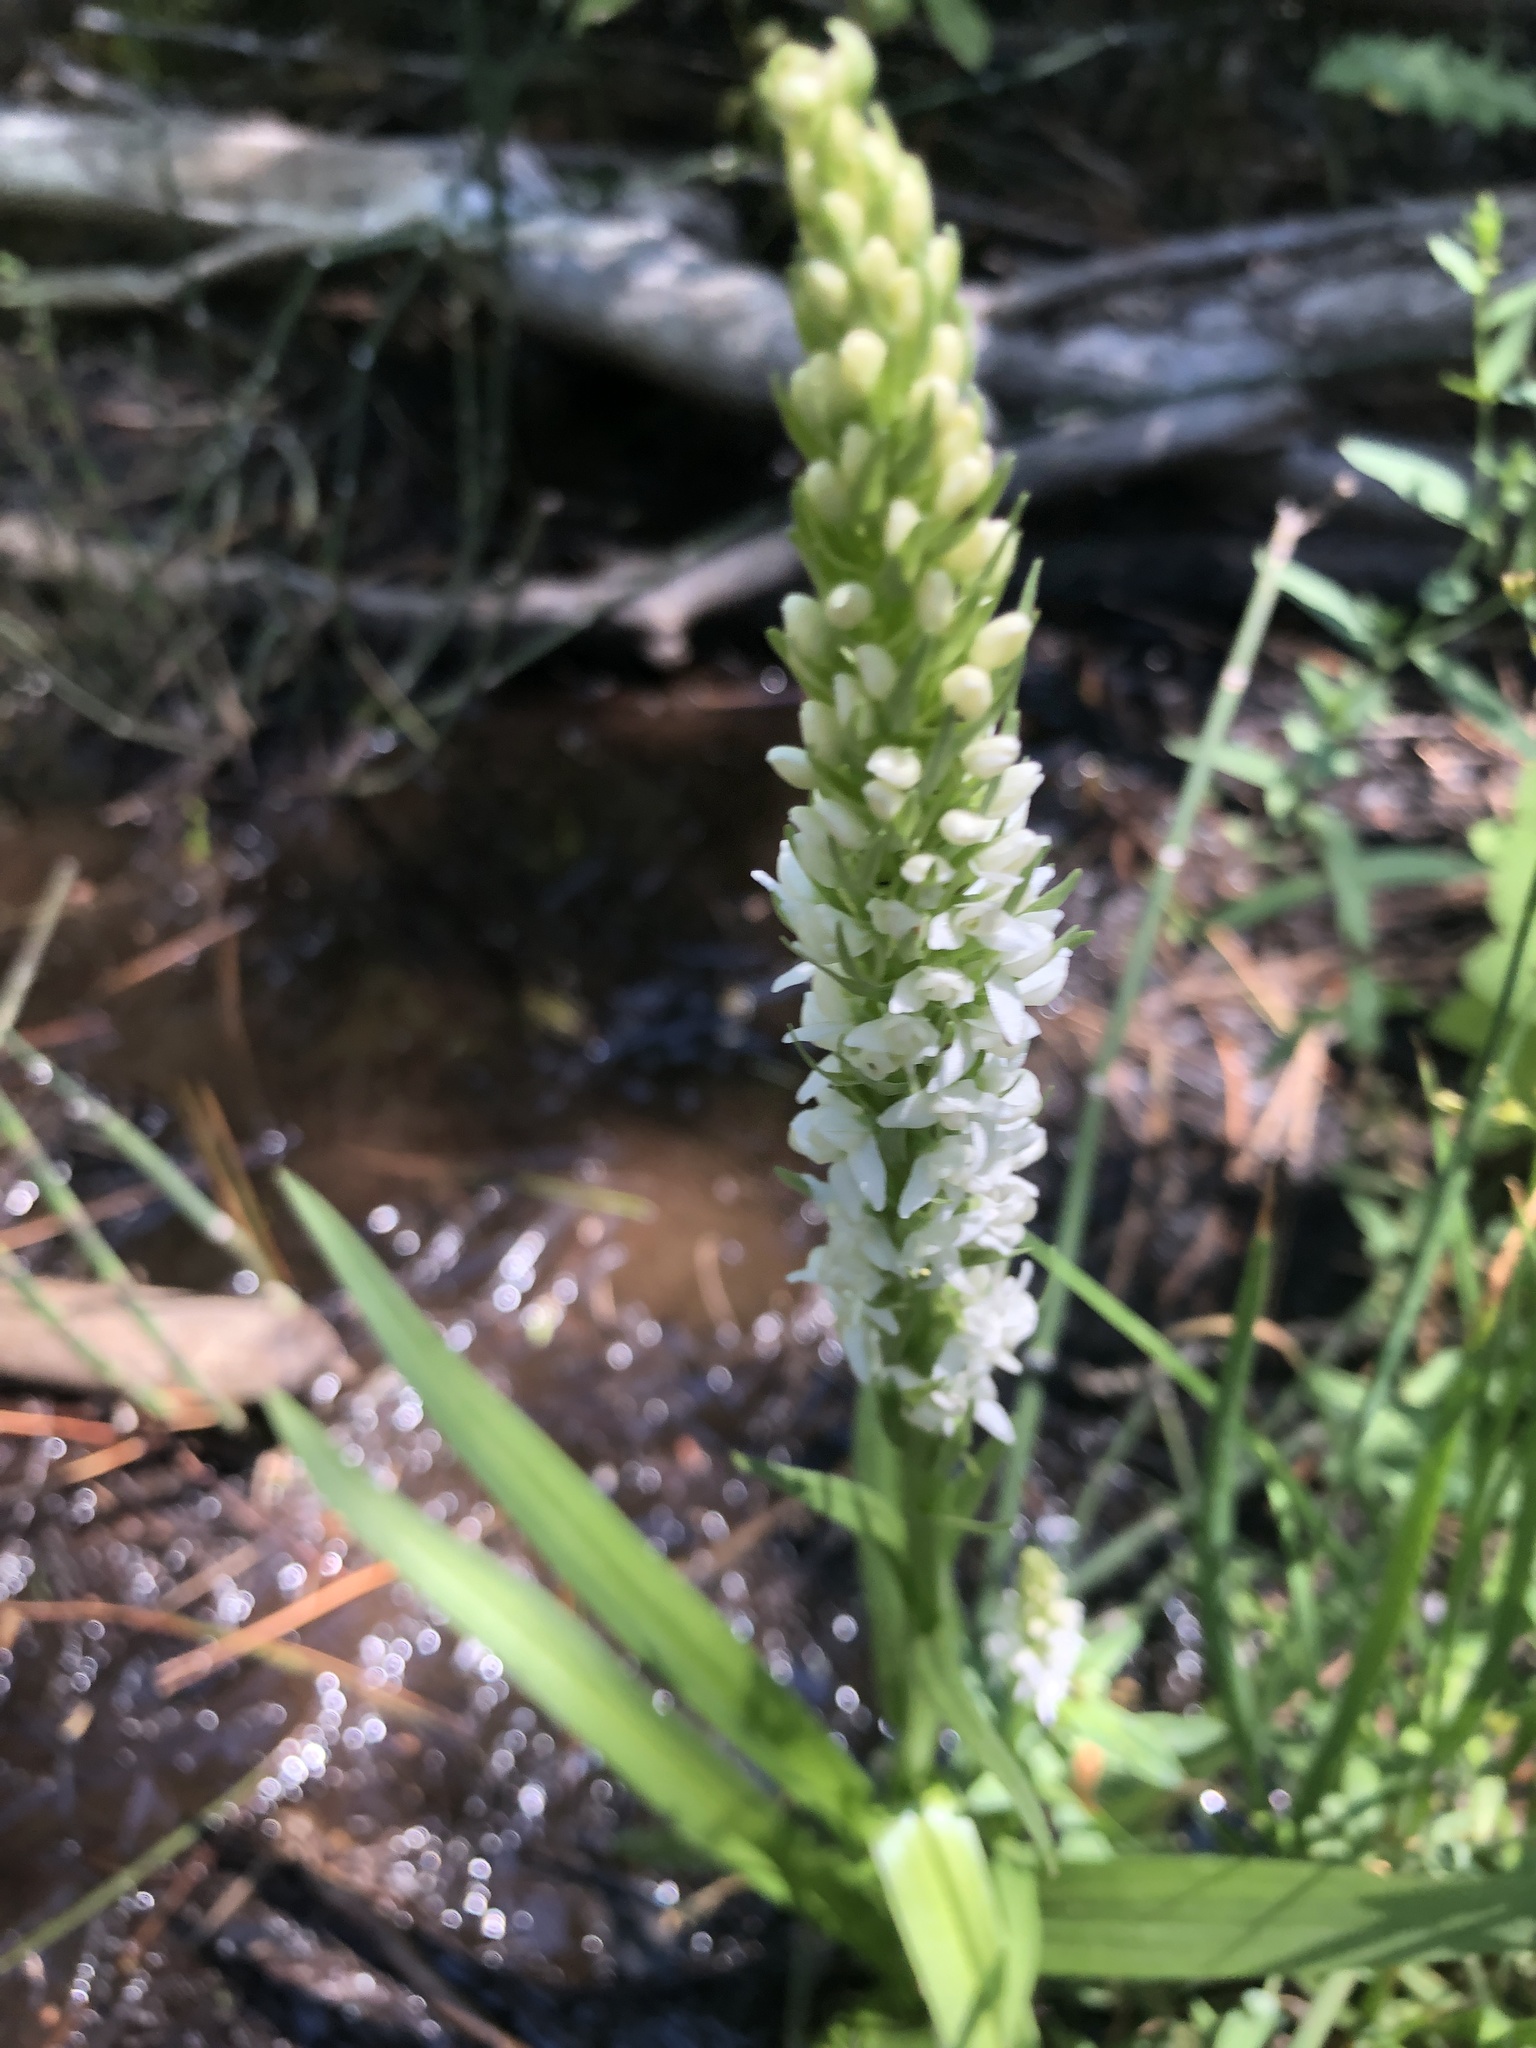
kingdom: Plantae
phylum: Tracheophyta
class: Liliopsida
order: Asparagales
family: Orchidaceae
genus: Platanthera
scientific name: Platanthera dilatata
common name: Bog candles
